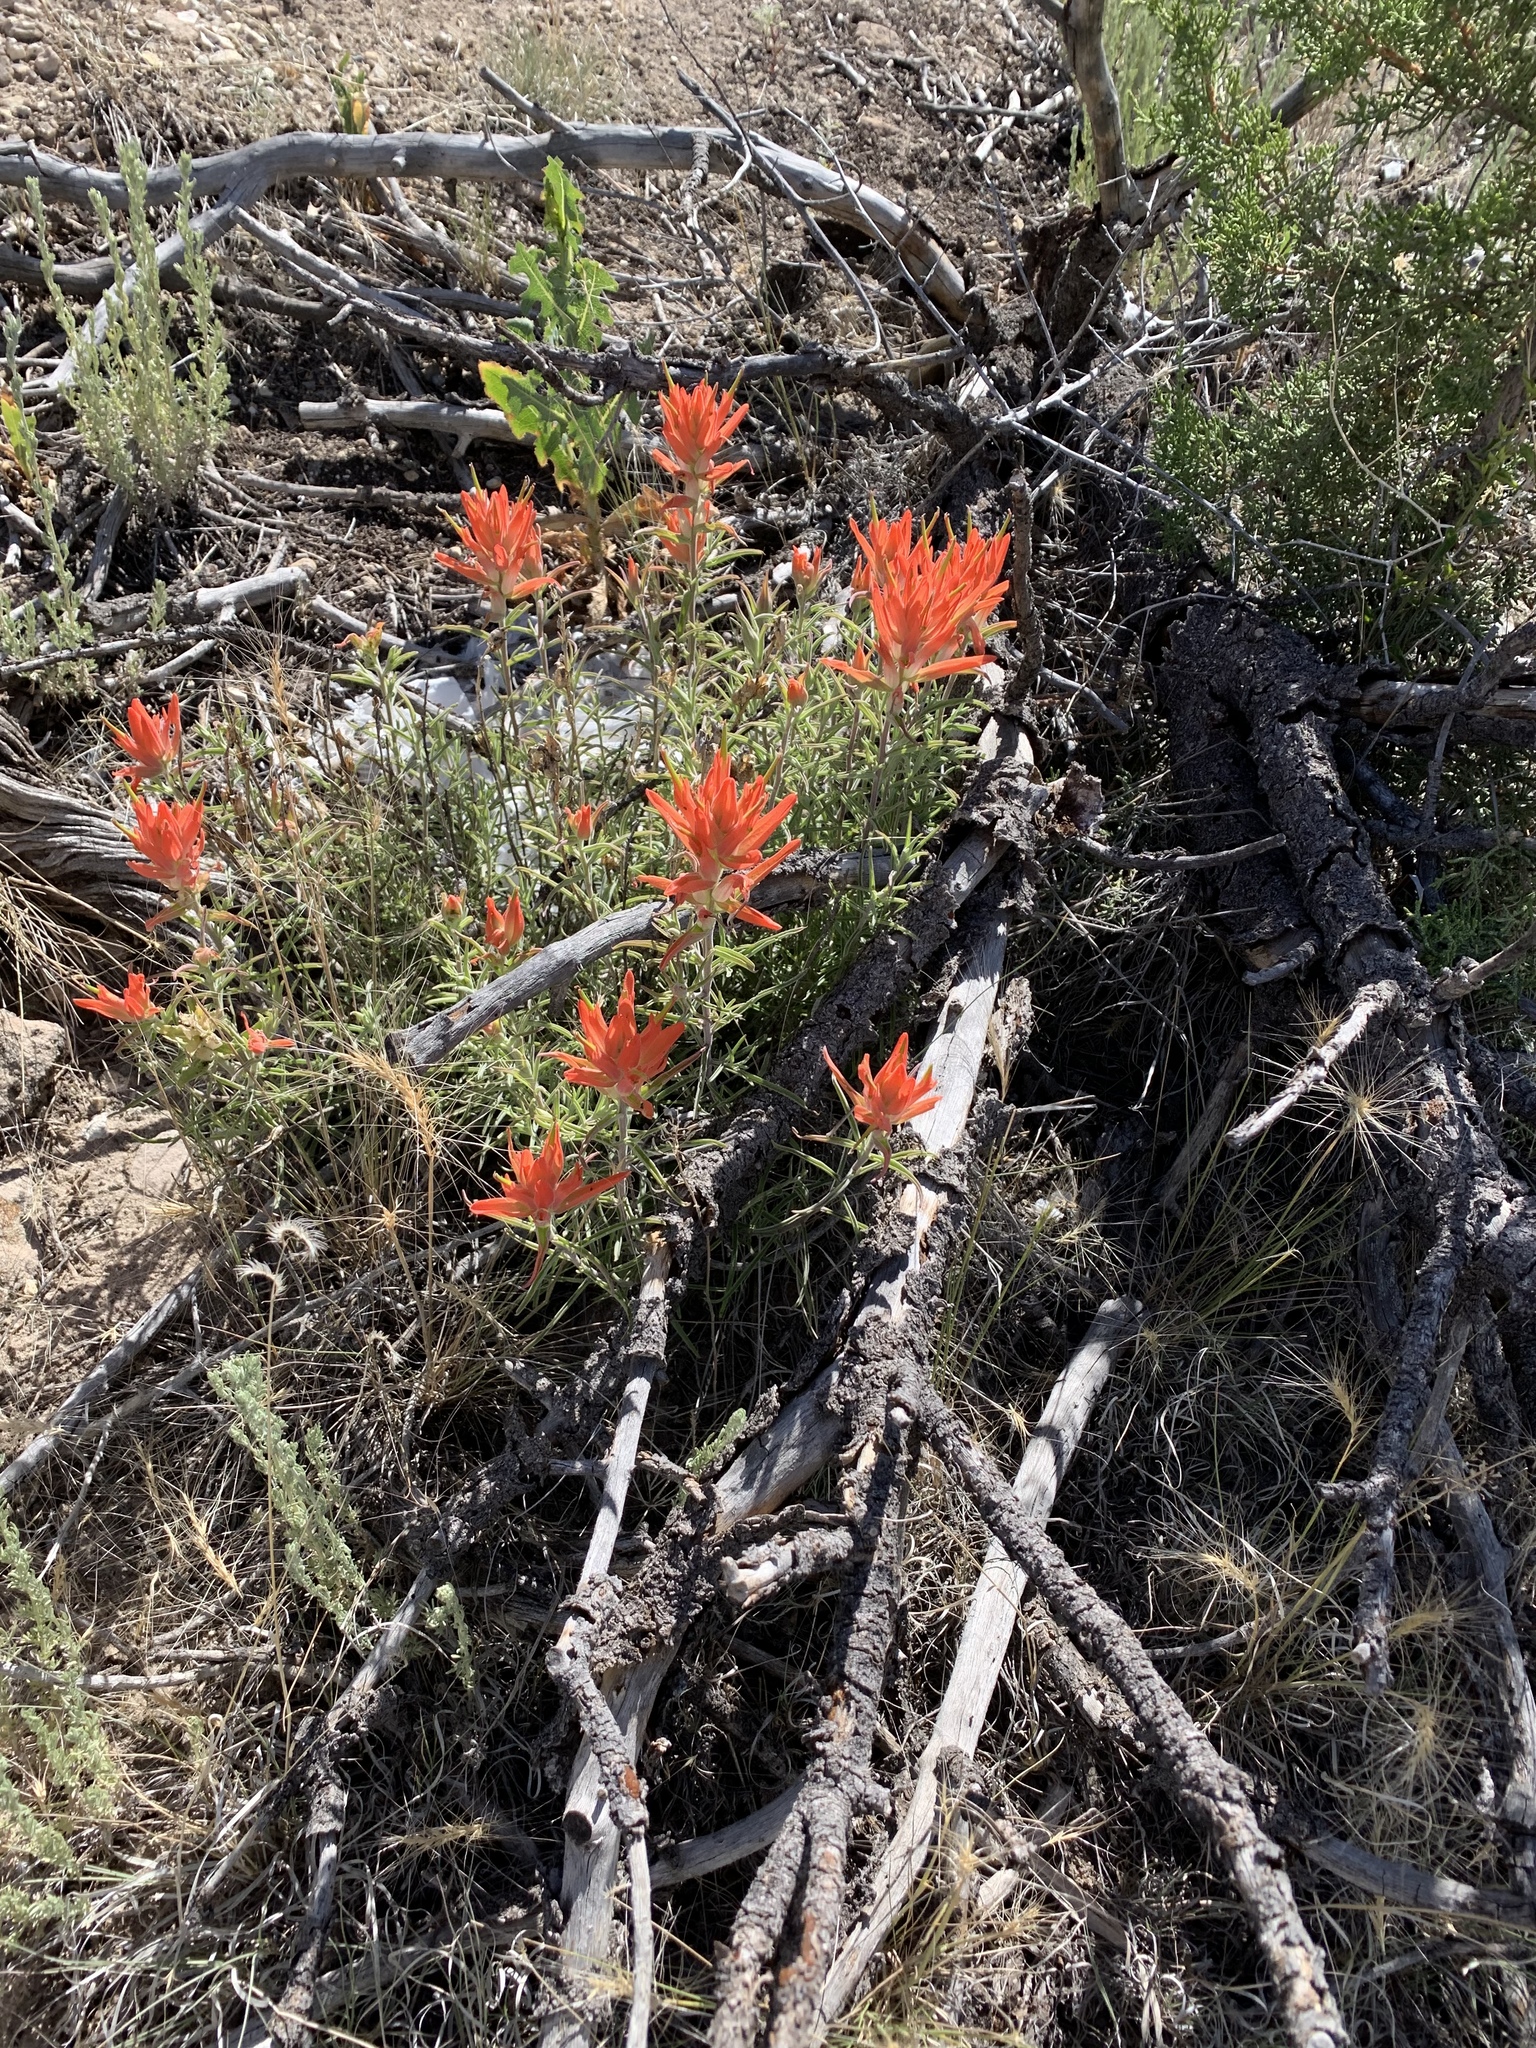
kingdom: Plantae
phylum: Tracheophyta
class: Magnoliopsida
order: Lamiales
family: Orobanchaceae
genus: Castilleja
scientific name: Castilleja integra
